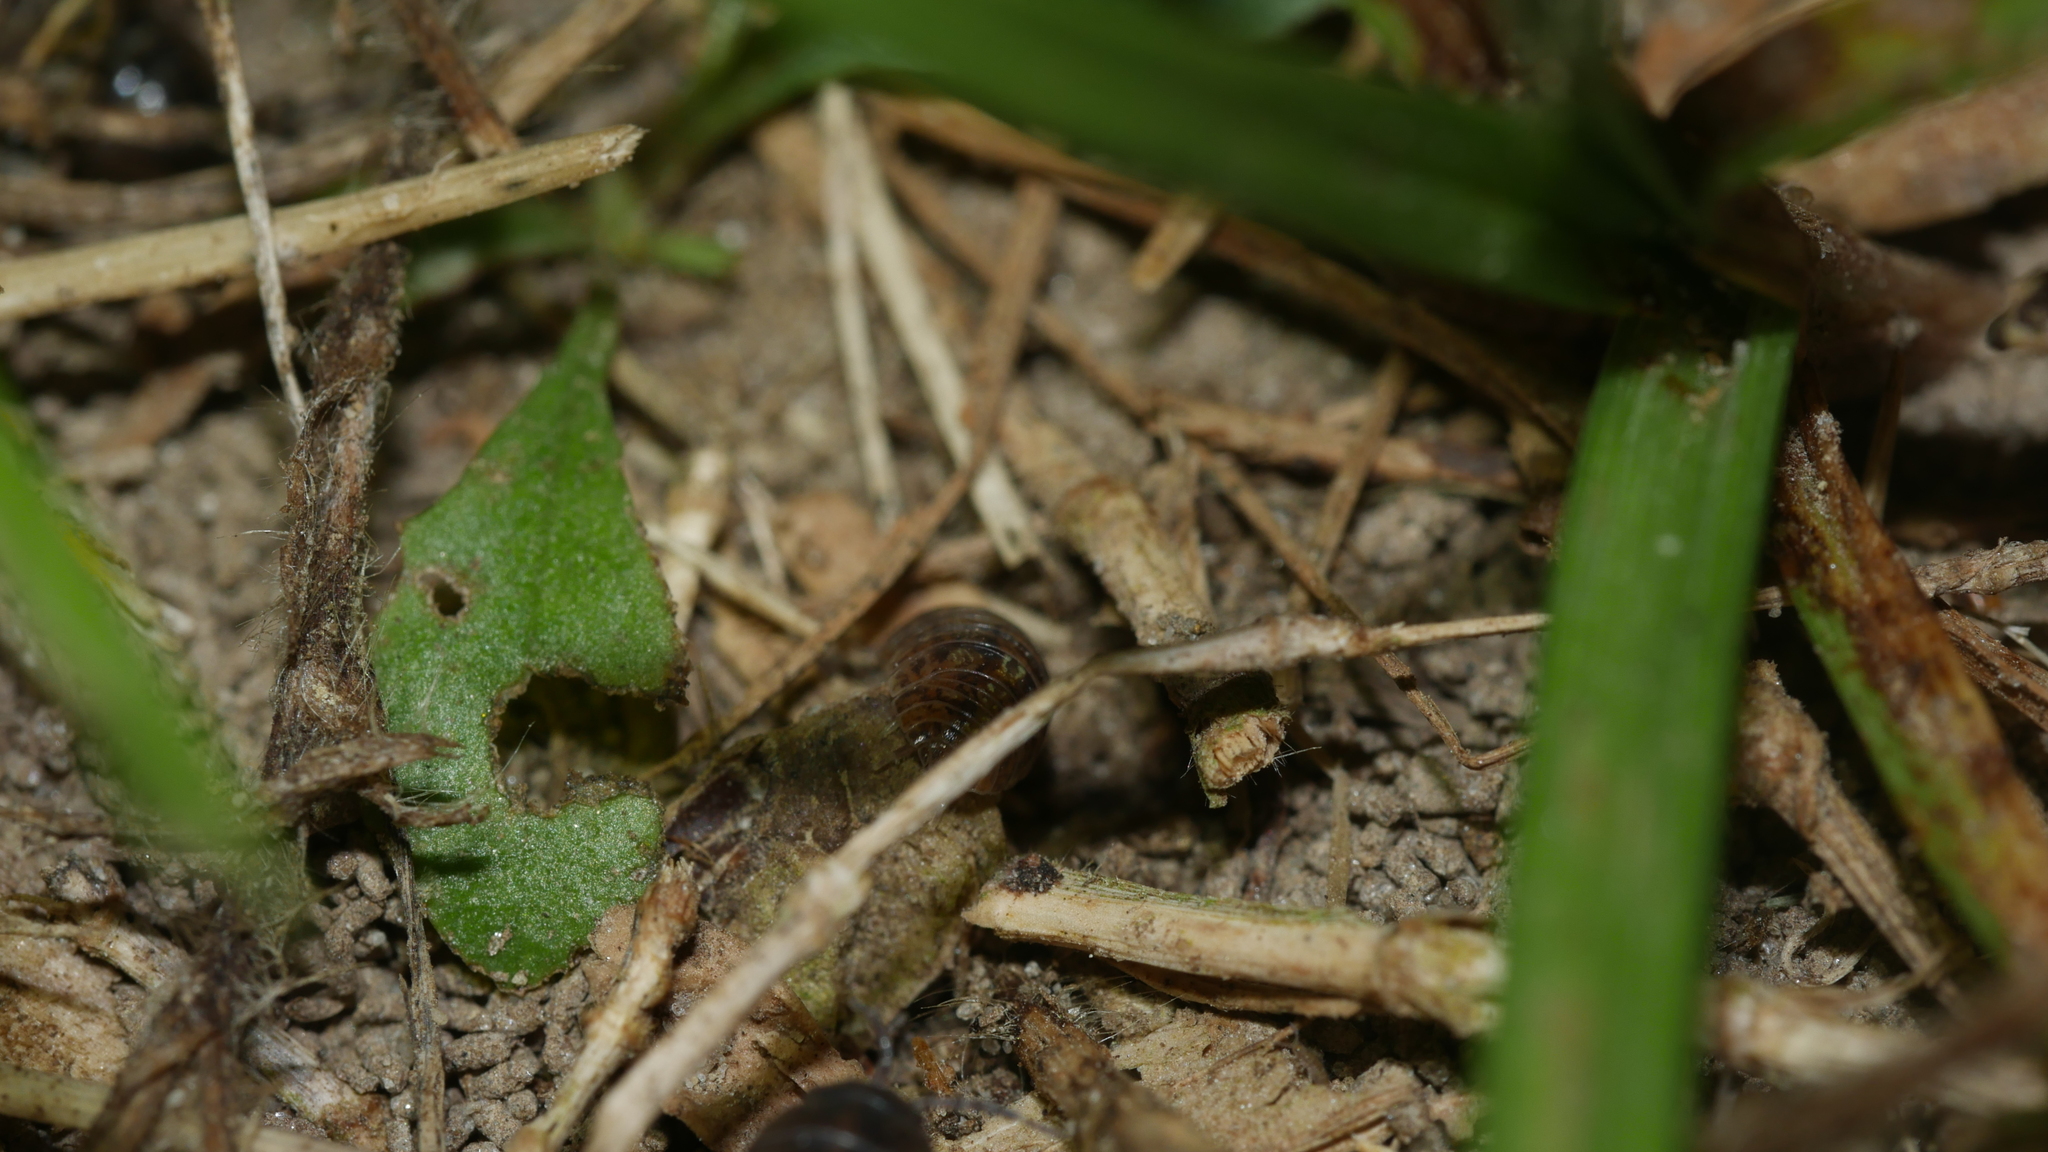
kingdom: Animalia
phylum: Arthropoda
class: Malacostraca
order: Isopoda
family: Armadillidiidae
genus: Armadillidium
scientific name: Armadillidium vulgare
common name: Common pill woodlouse
